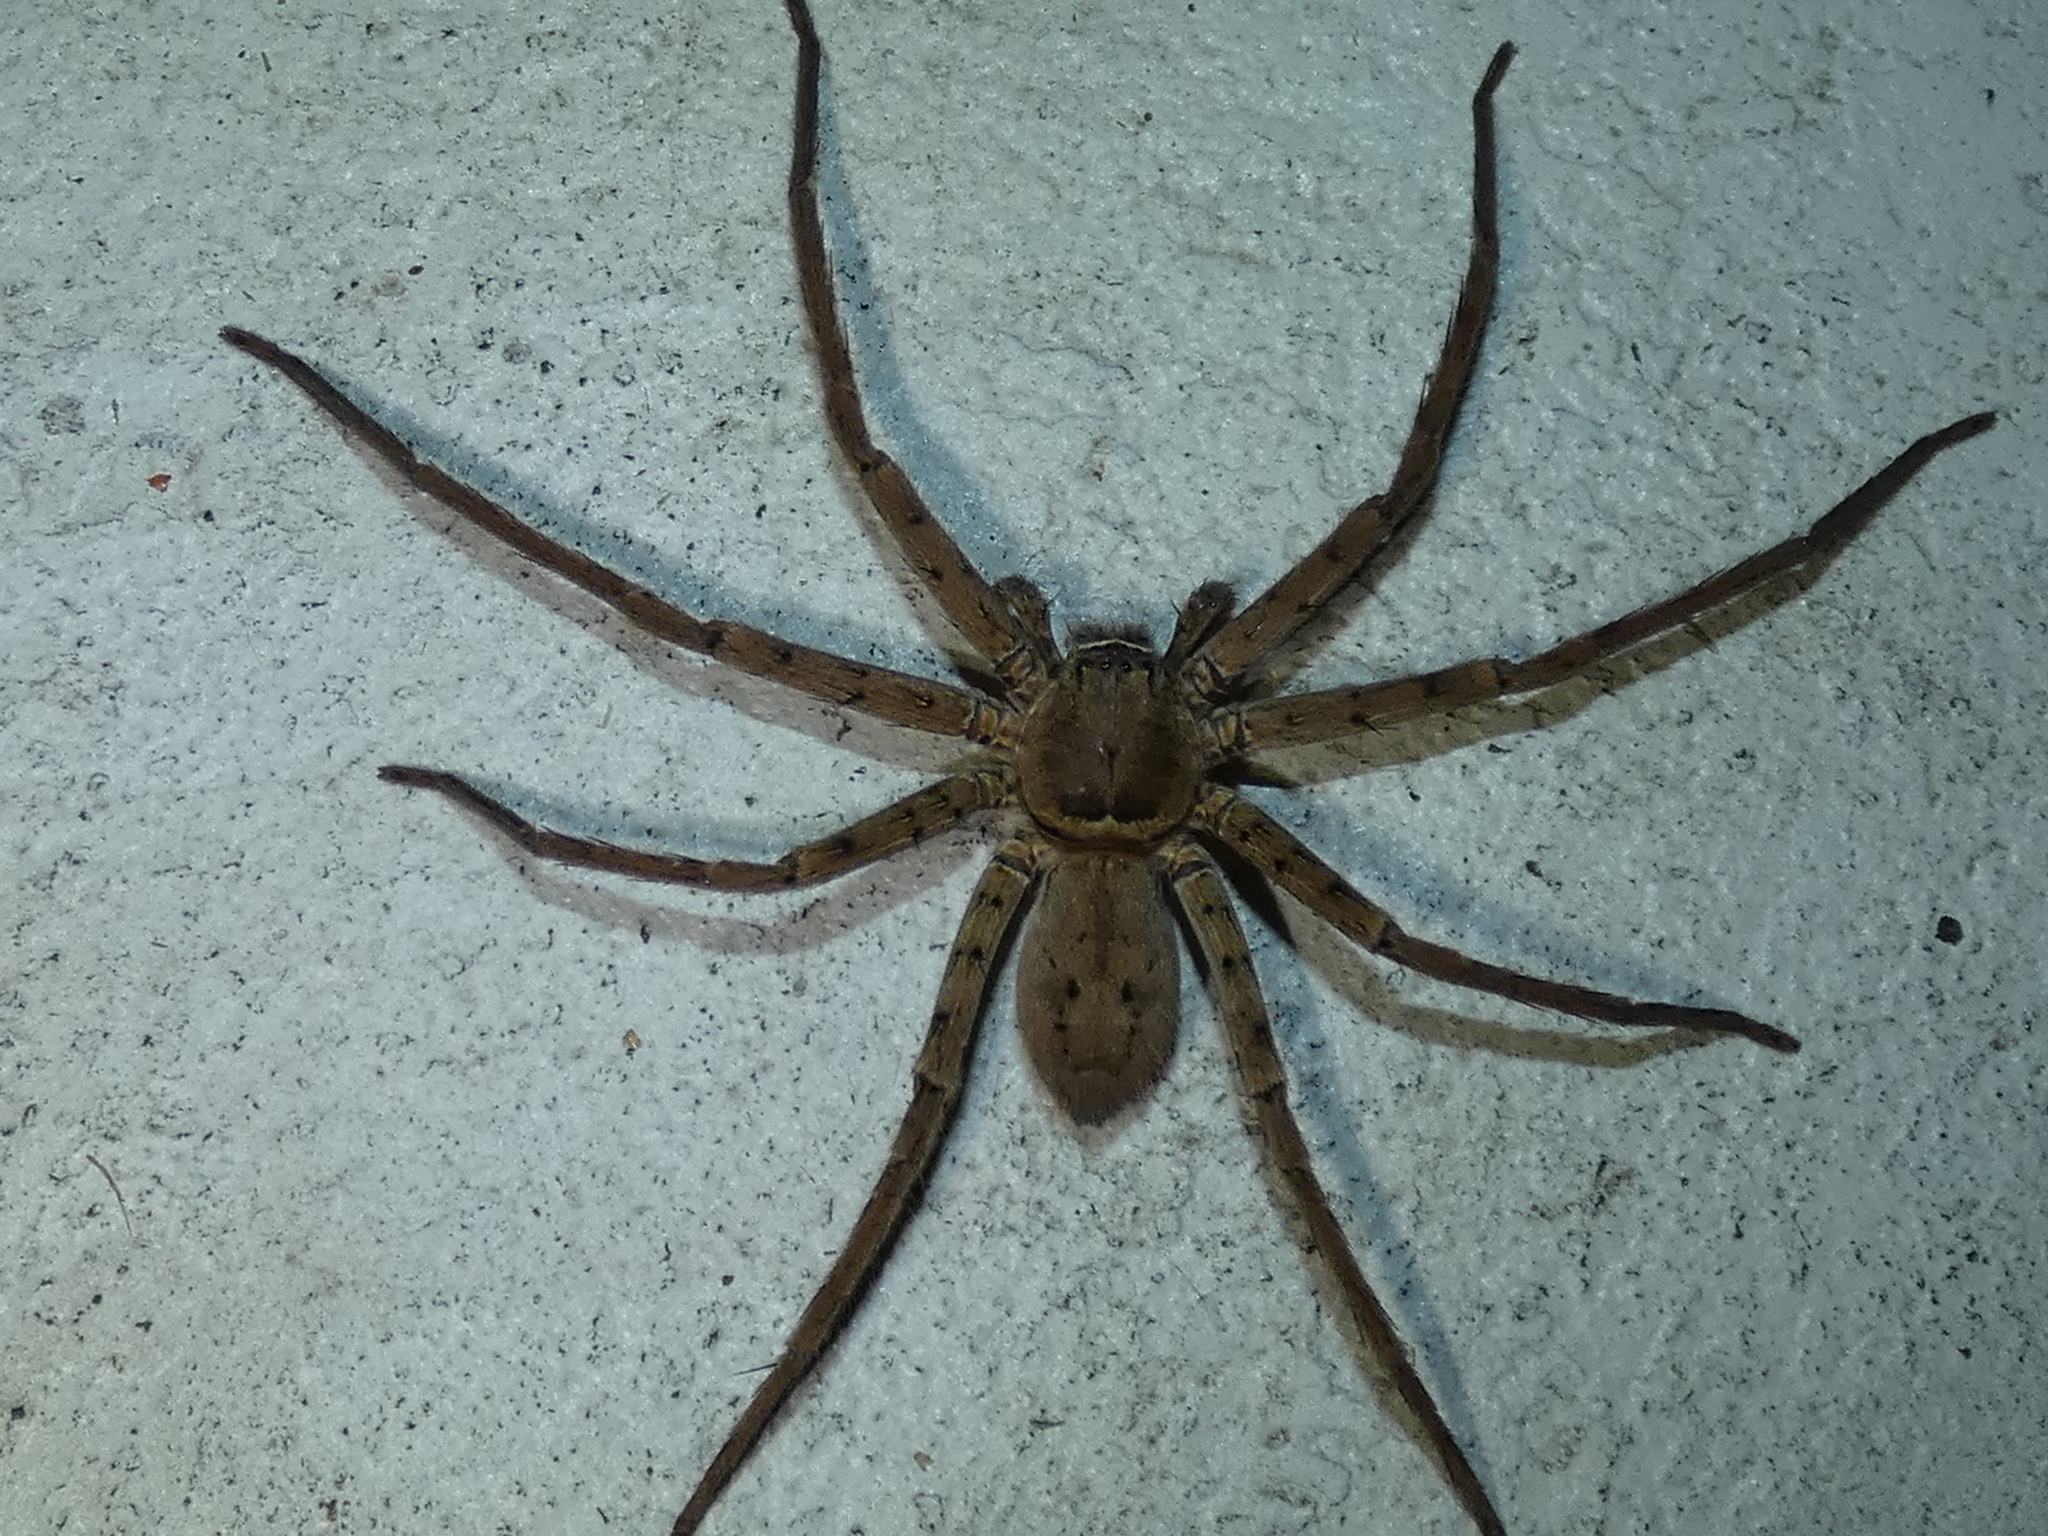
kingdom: Animalia
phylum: Arthropoda
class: Arachnida
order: Araneae
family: Sparassidae
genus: Heteropoda
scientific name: Heteropoda venatoria
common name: Huntsman spider
